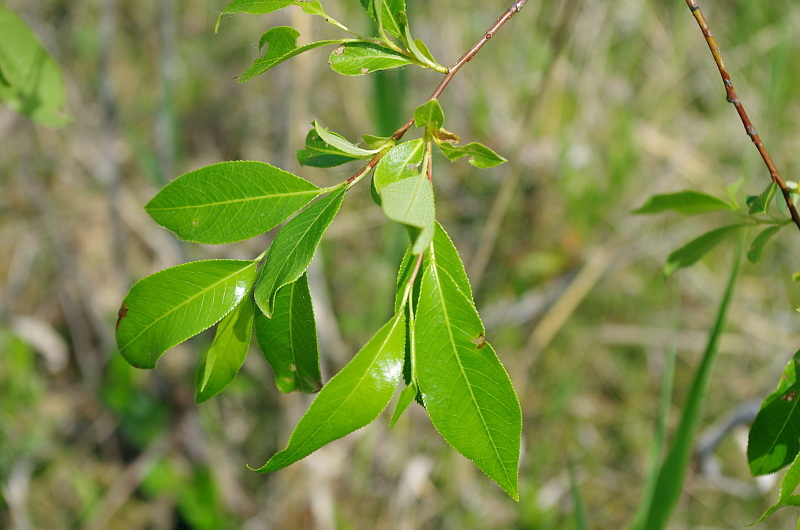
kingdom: Plantae
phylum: Tracheophyta
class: Magnoliopsida
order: Malpighiales
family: Salicaceae
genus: Salix
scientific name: Salix pentandra
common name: Bay willow
